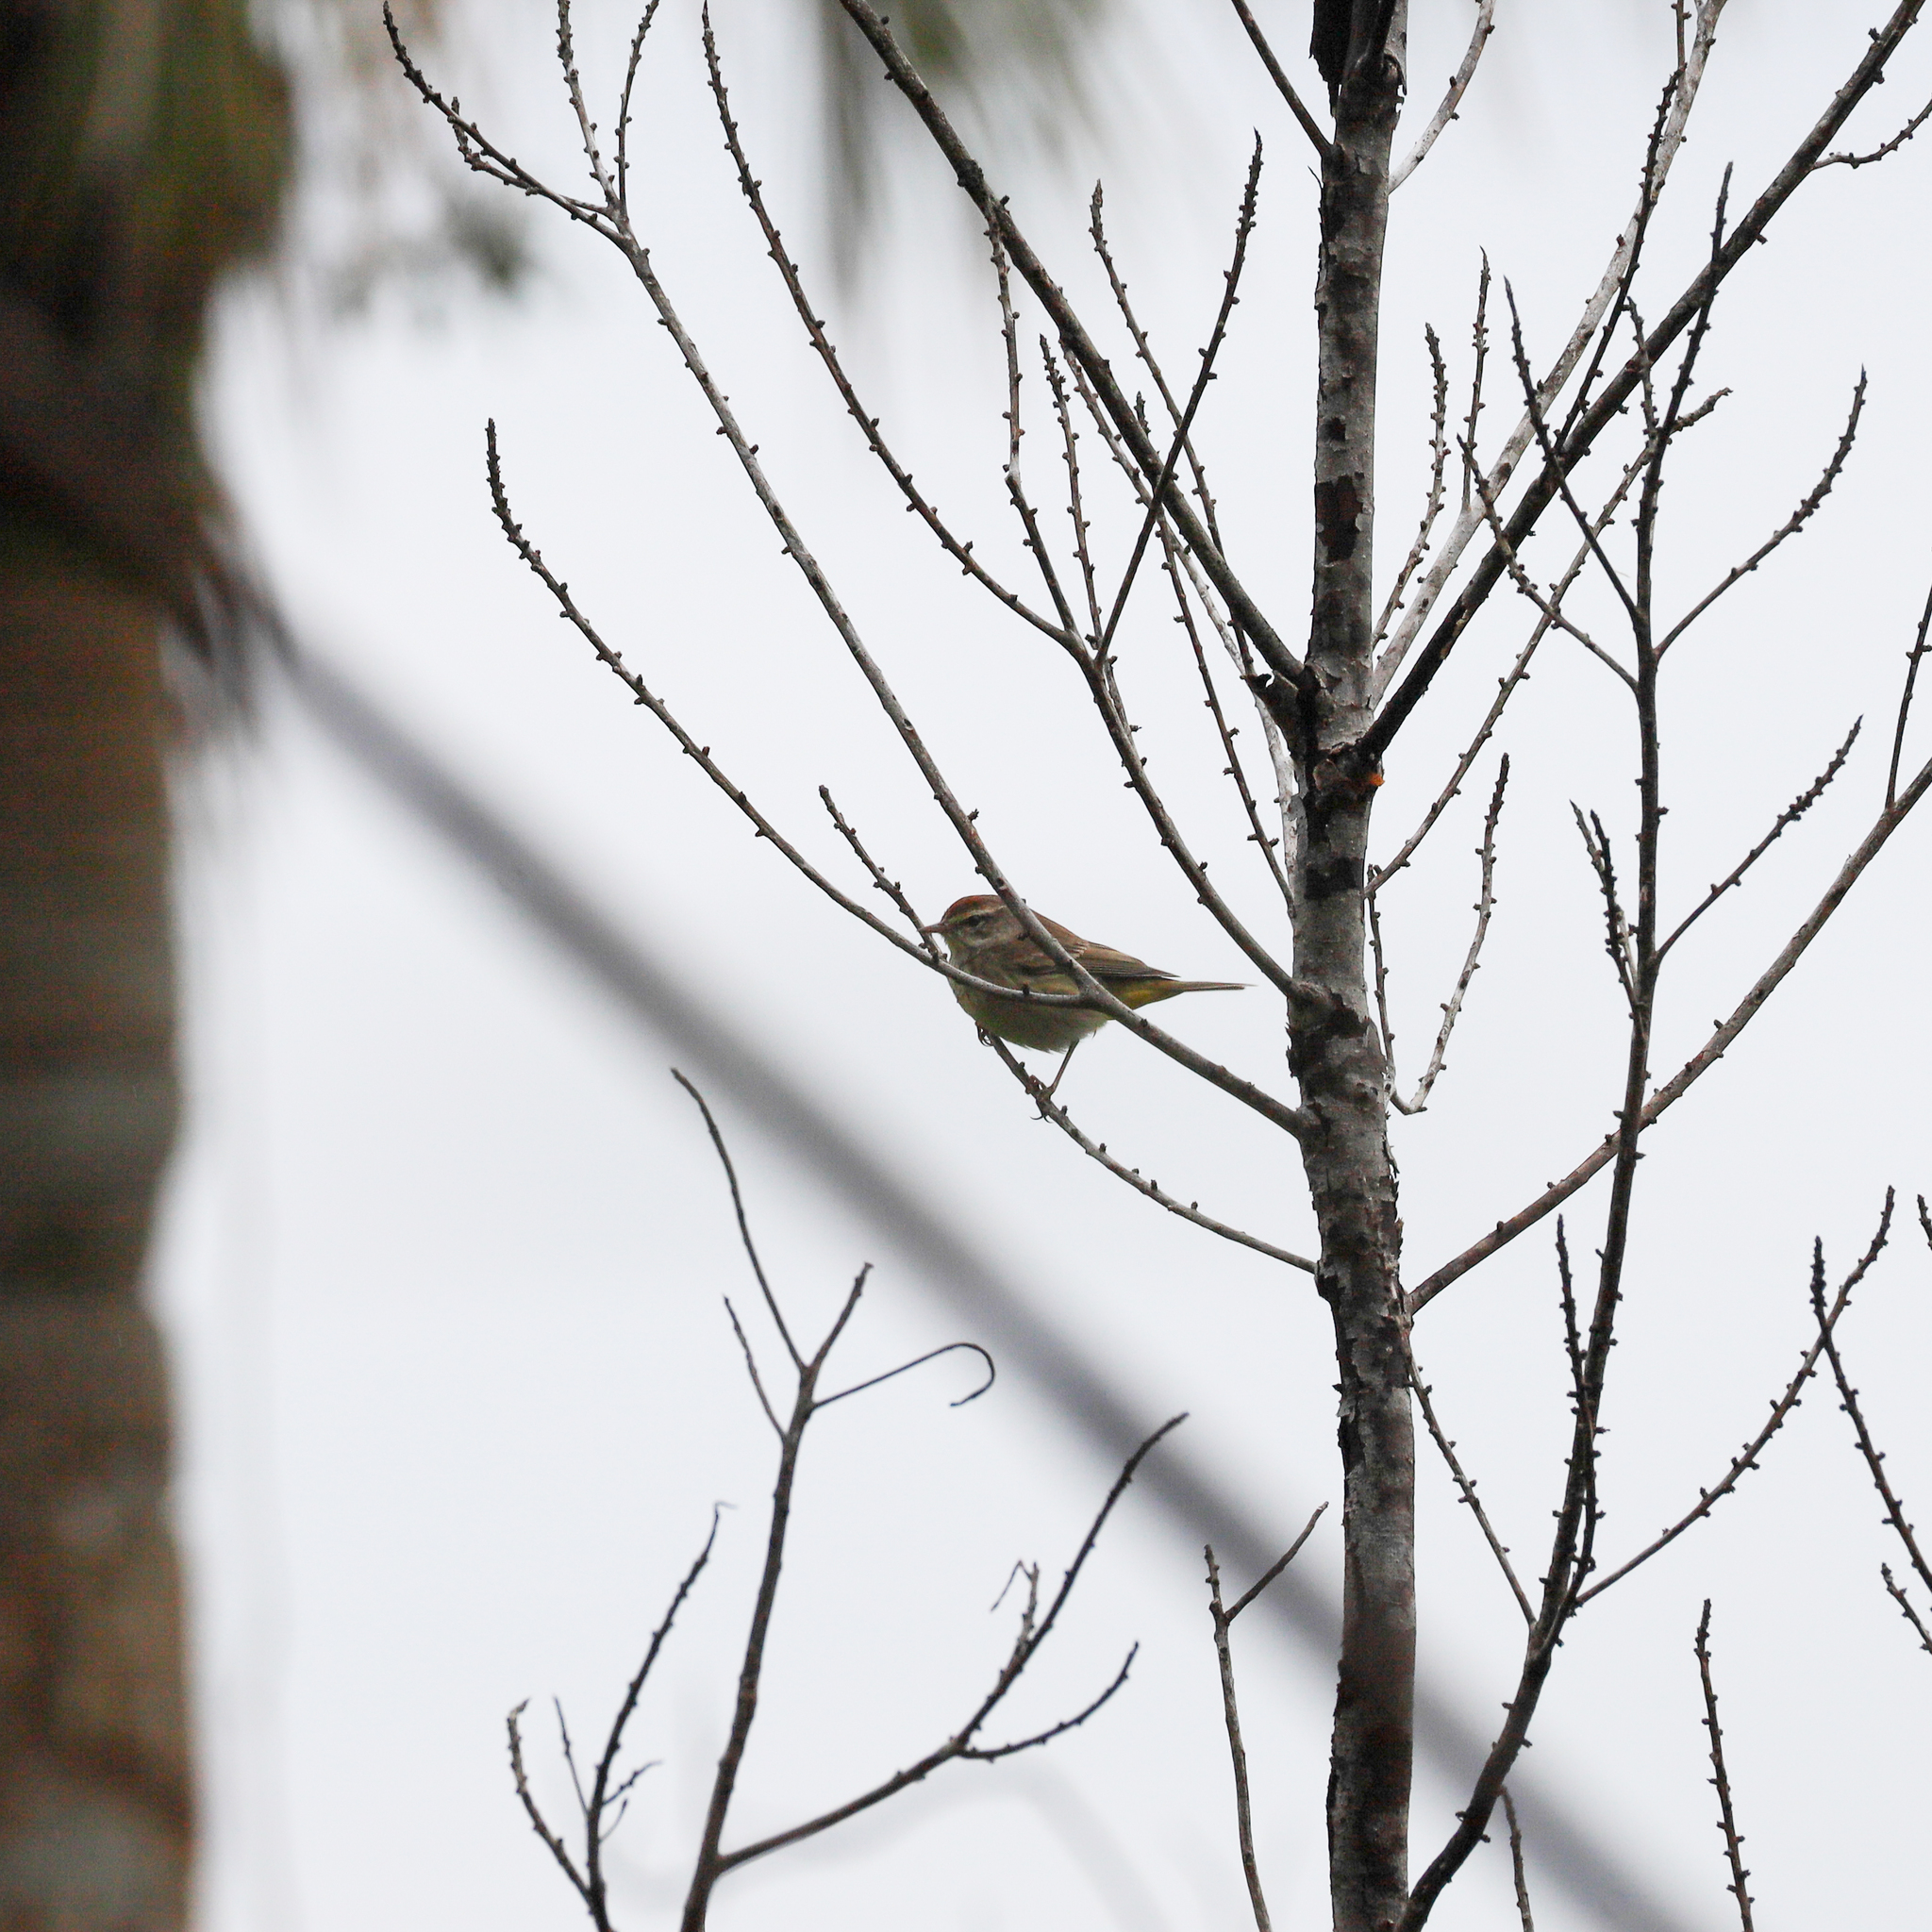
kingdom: Animalia
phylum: Chordata
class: Aves
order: Passeriformes
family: Parulidae
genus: Setophaga
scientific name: Setophaga palmarum
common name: Palm warbler
